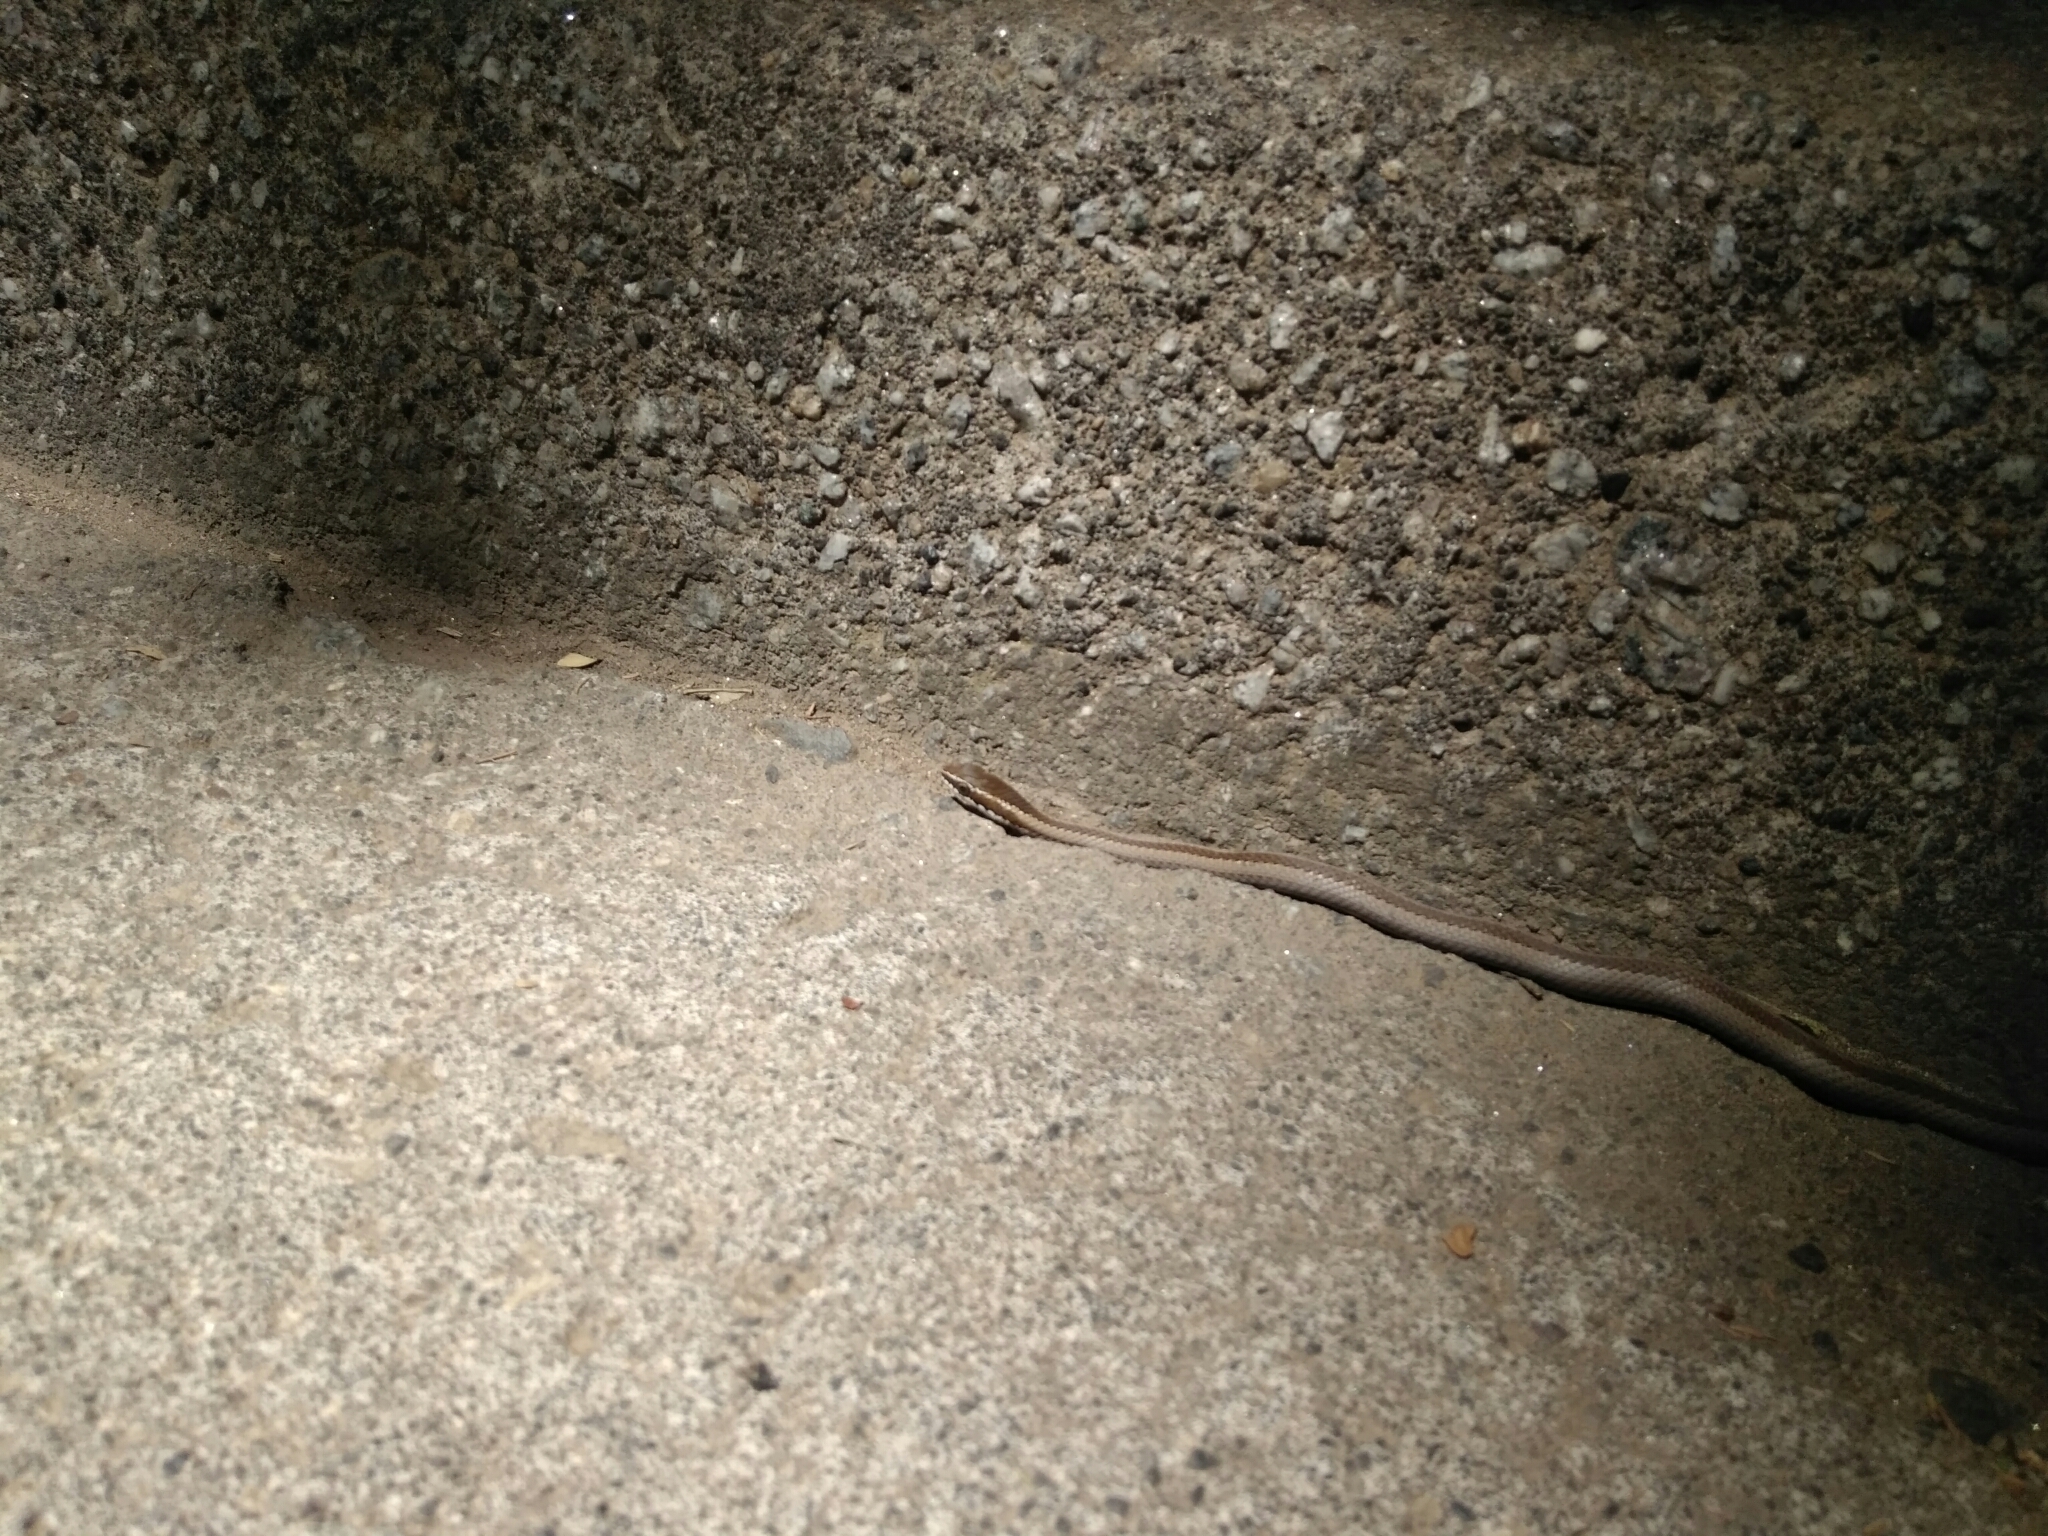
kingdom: Animalia
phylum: Chordata
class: Squamata
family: Colubridae
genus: Philodryas
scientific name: Philodryas chamissonis
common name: Chilean green racer
